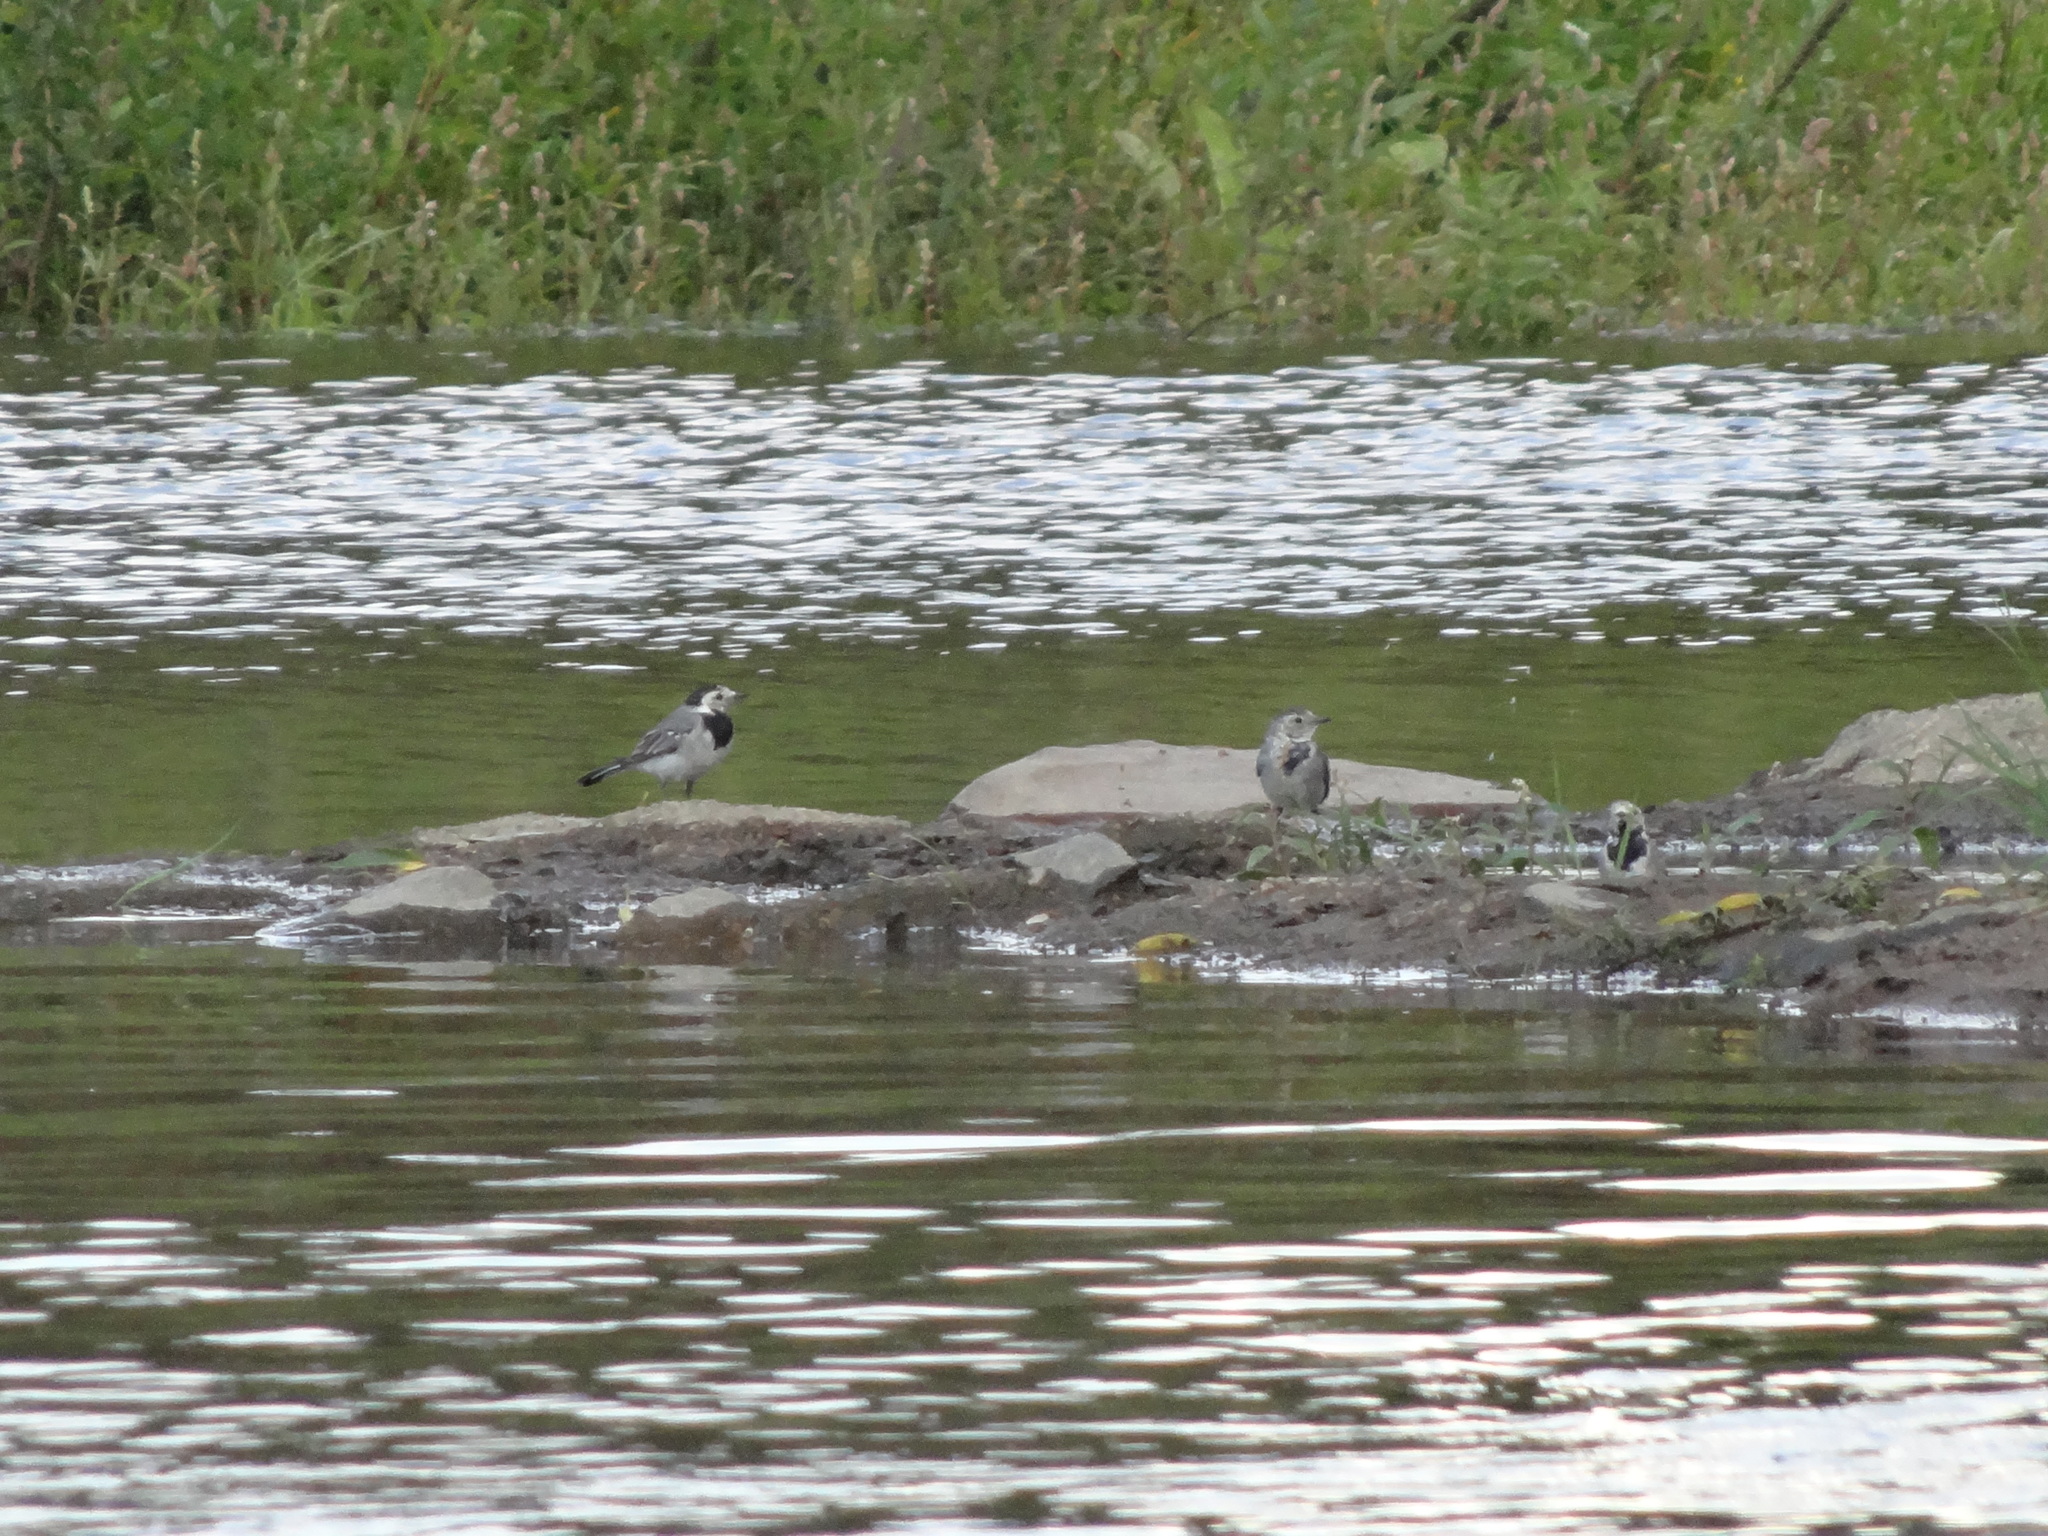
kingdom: Animalia
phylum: Chordata
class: Aves
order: Passeriformes
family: Motacillidae
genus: Motacilla
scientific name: Motacilla alba
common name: White wagtail
